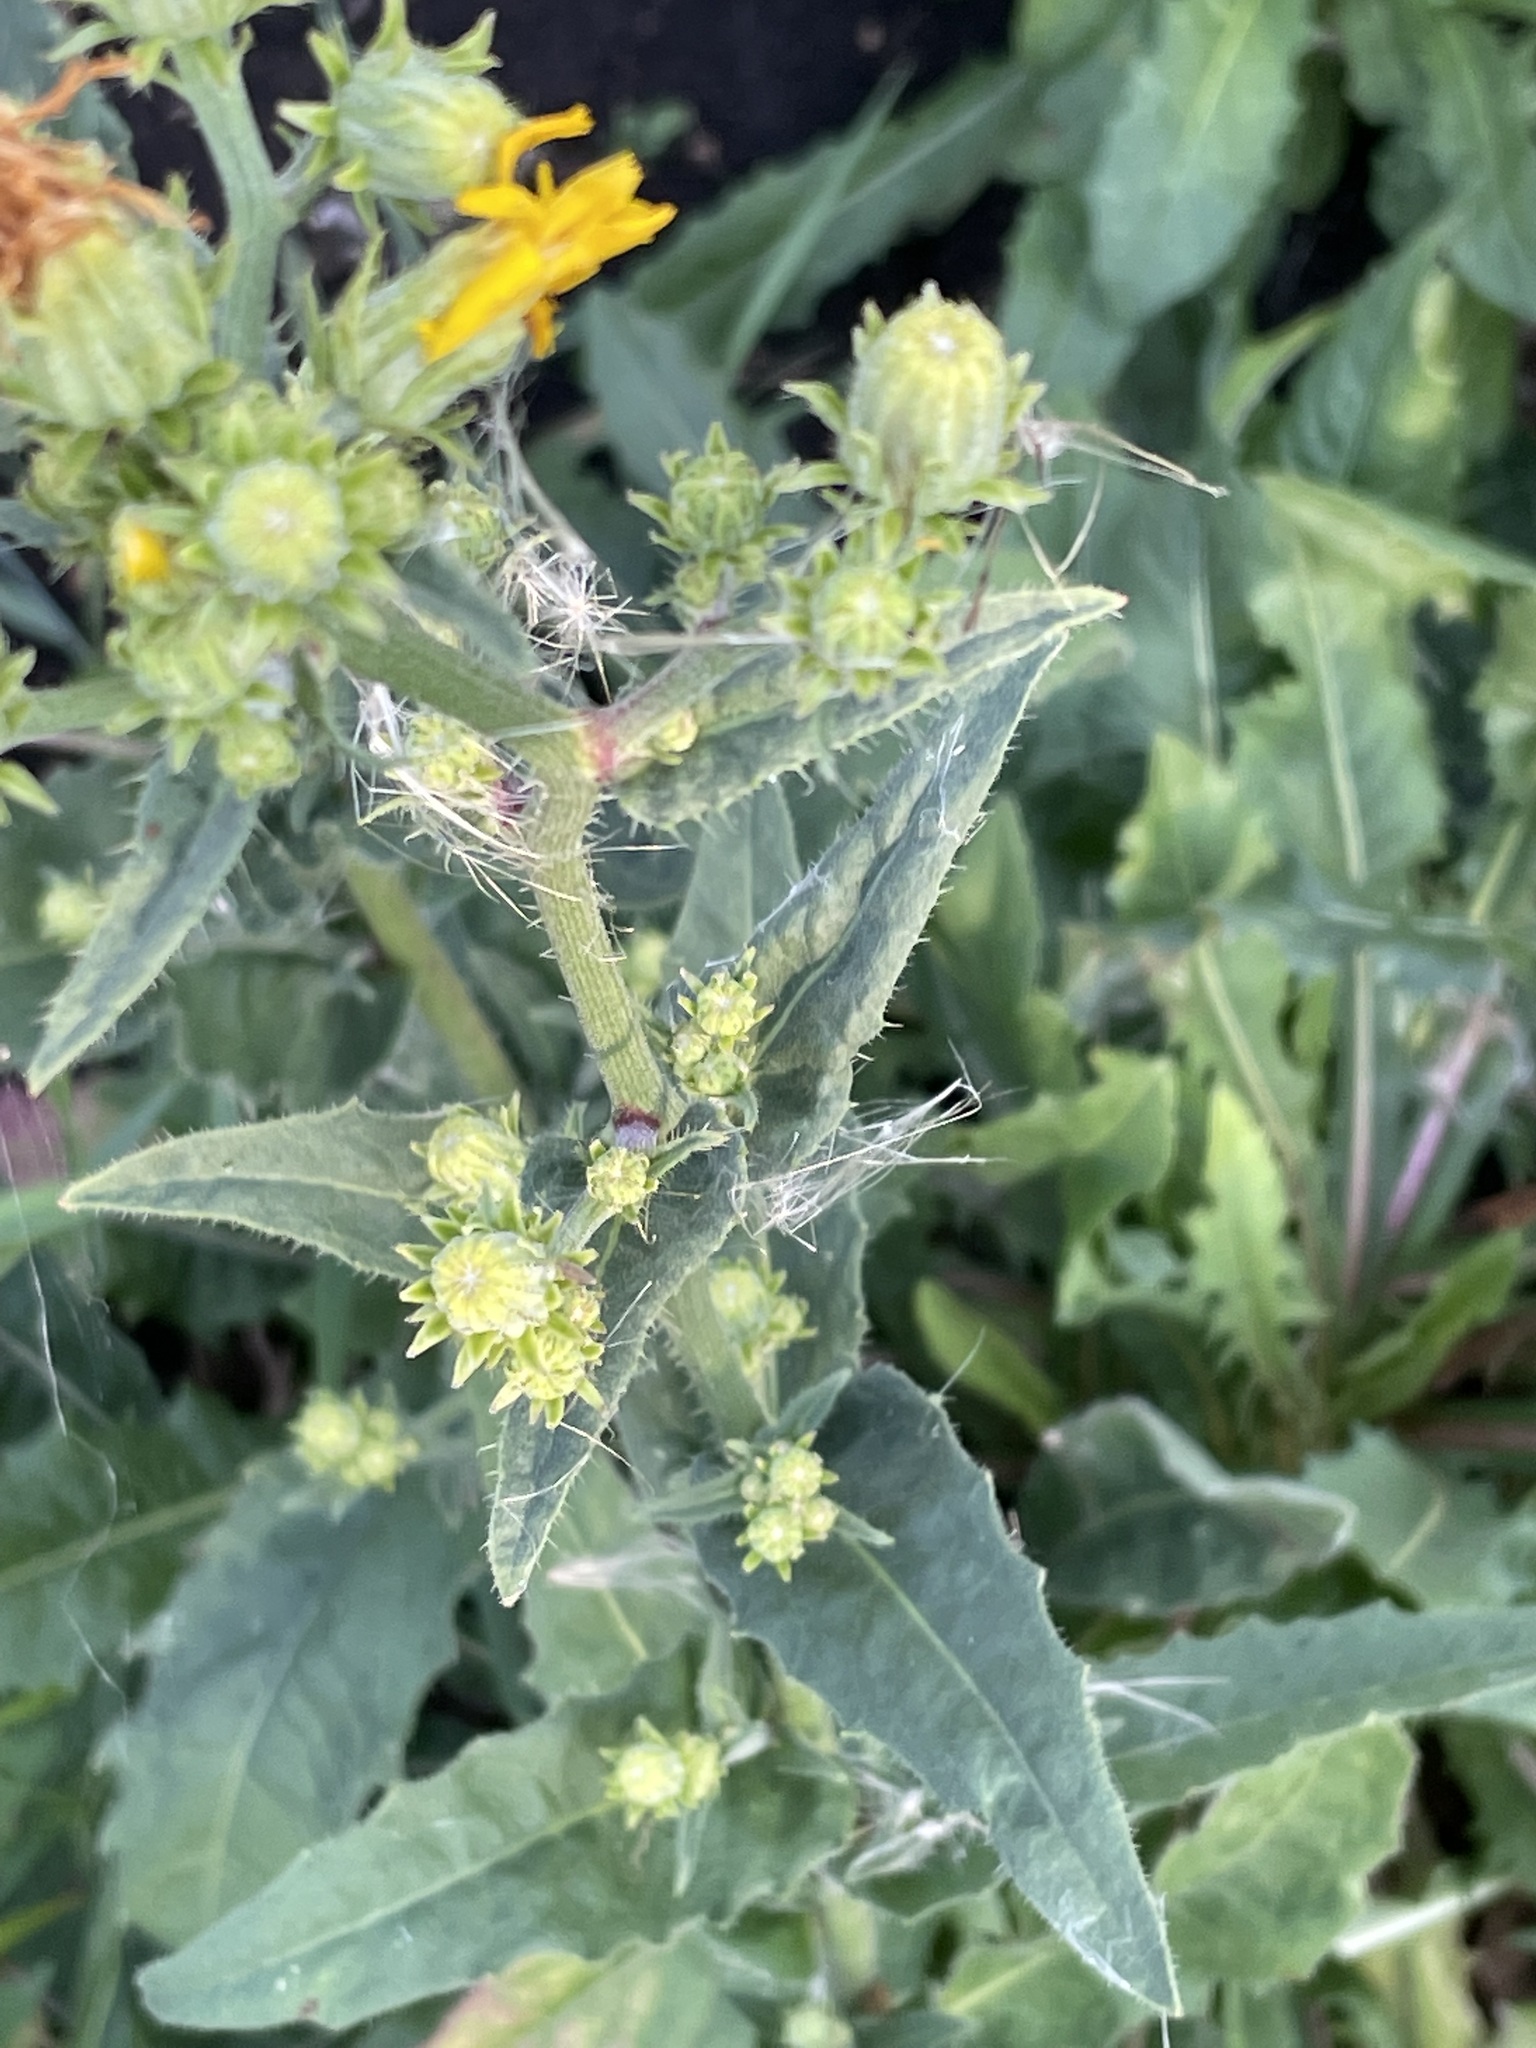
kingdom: Plantae
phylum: Tracheophyta
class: Magnoliopsida
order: Asterales
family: Asteraceae
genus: Picris
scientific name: Picris hieracioides
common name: Hawkweed oxtongue
